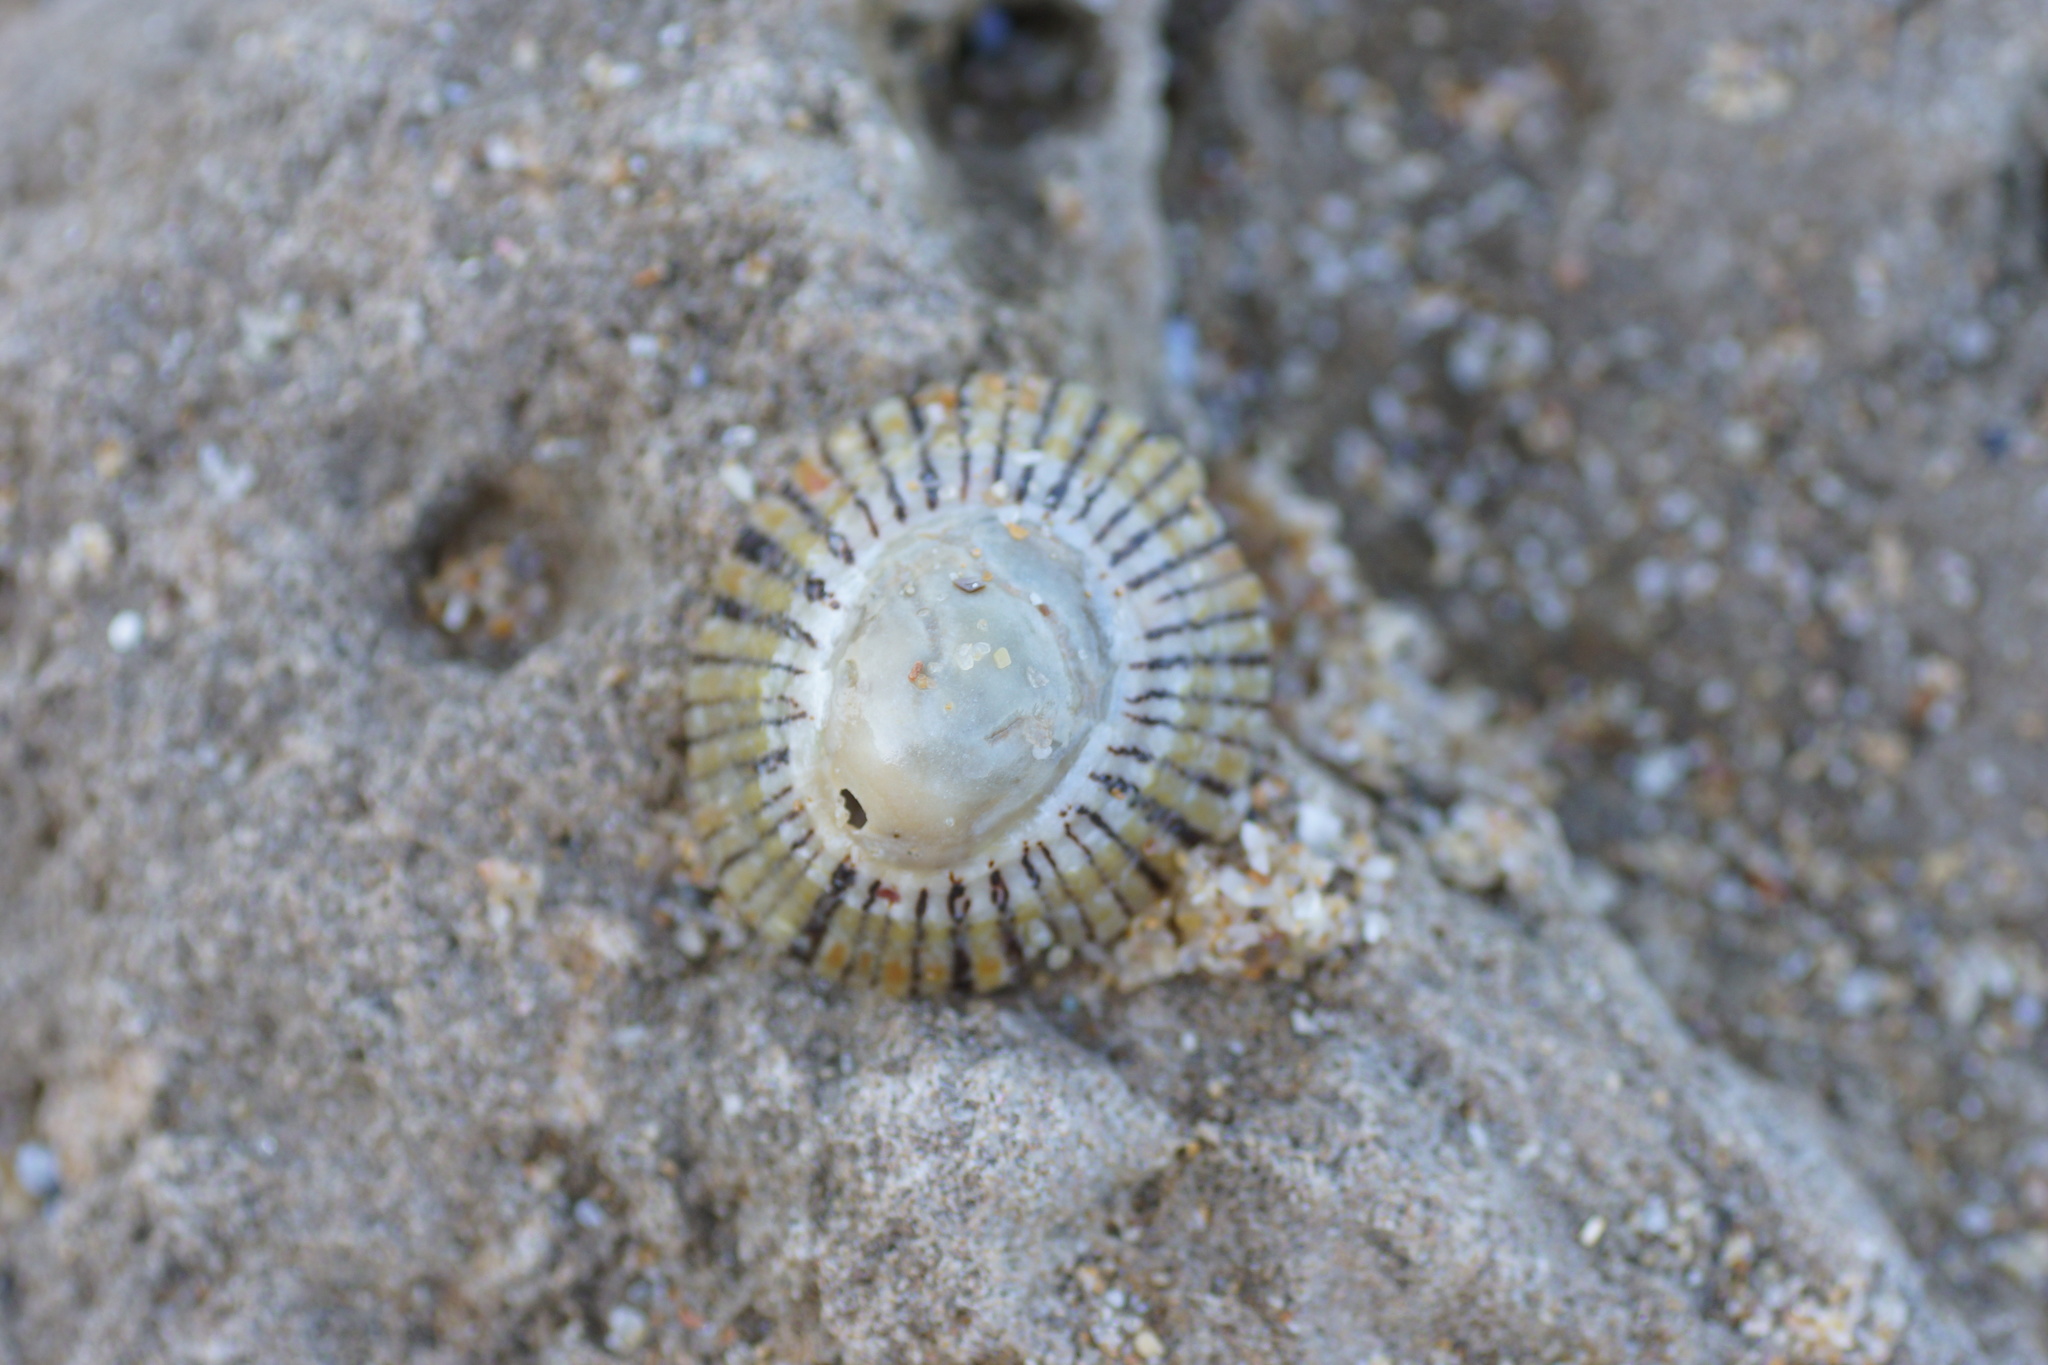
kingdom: Animalia
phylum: Mollusca
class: Gastropoda
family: Nacellidae
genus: Cellana
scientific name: Cellana tramoserica
